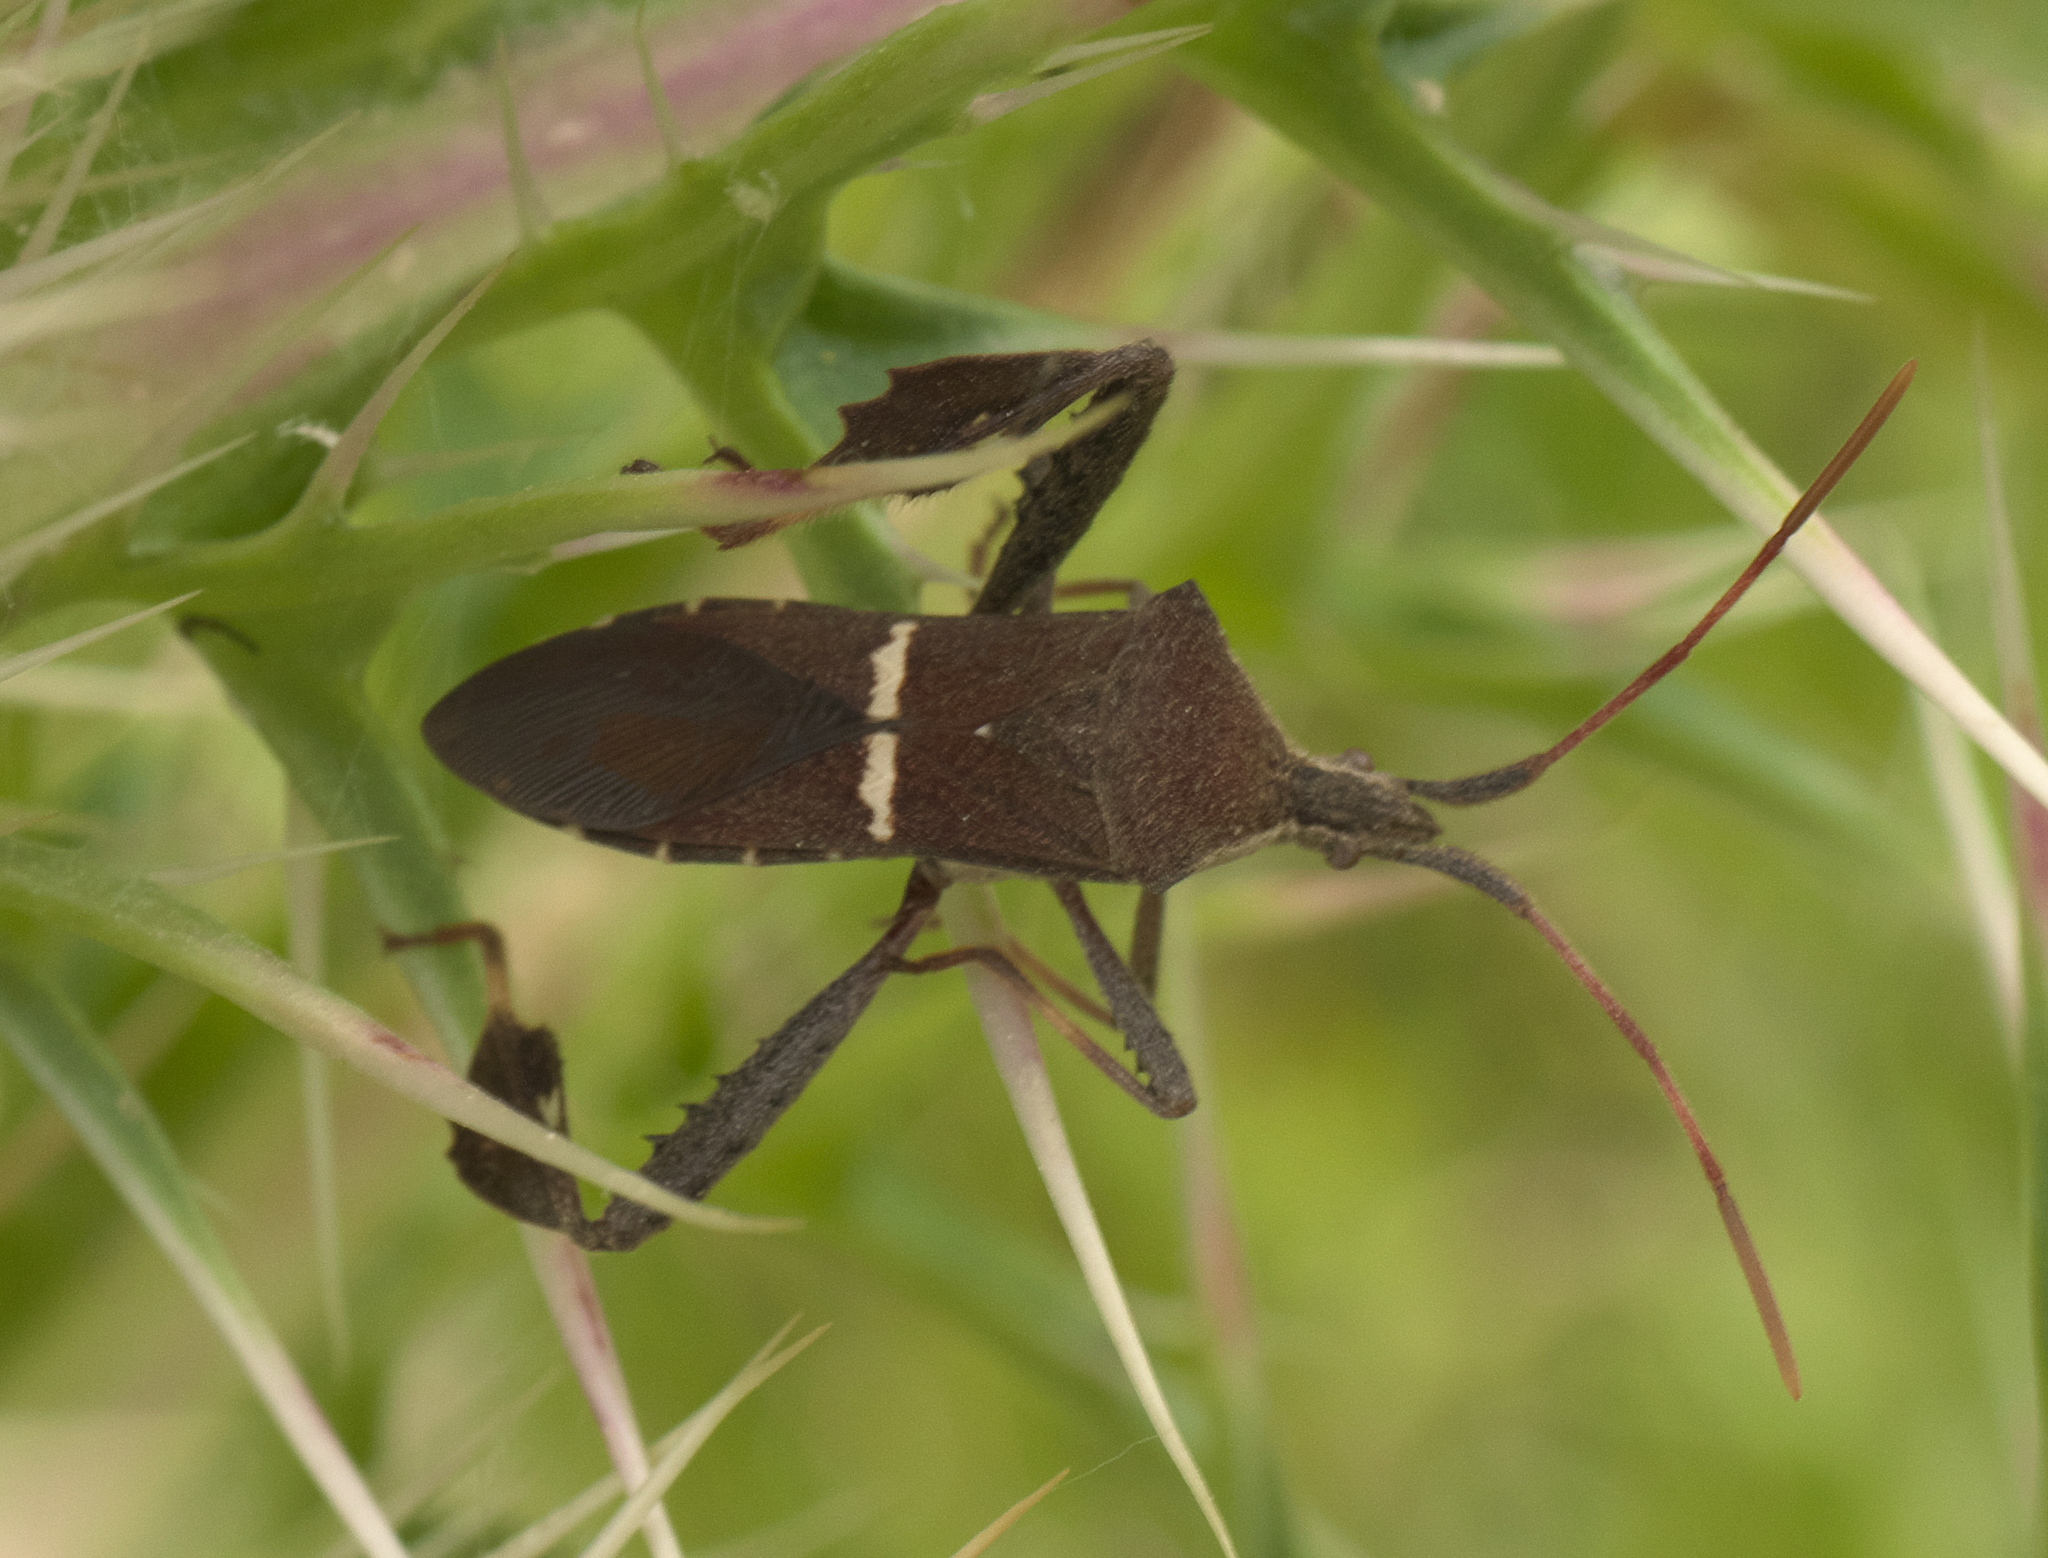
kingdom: Animalia
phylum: Arthropoda
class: Insecta
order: Hemiptera
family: Coreidae
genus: Leptoglossus
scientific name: Leptoglossus phyllopus
